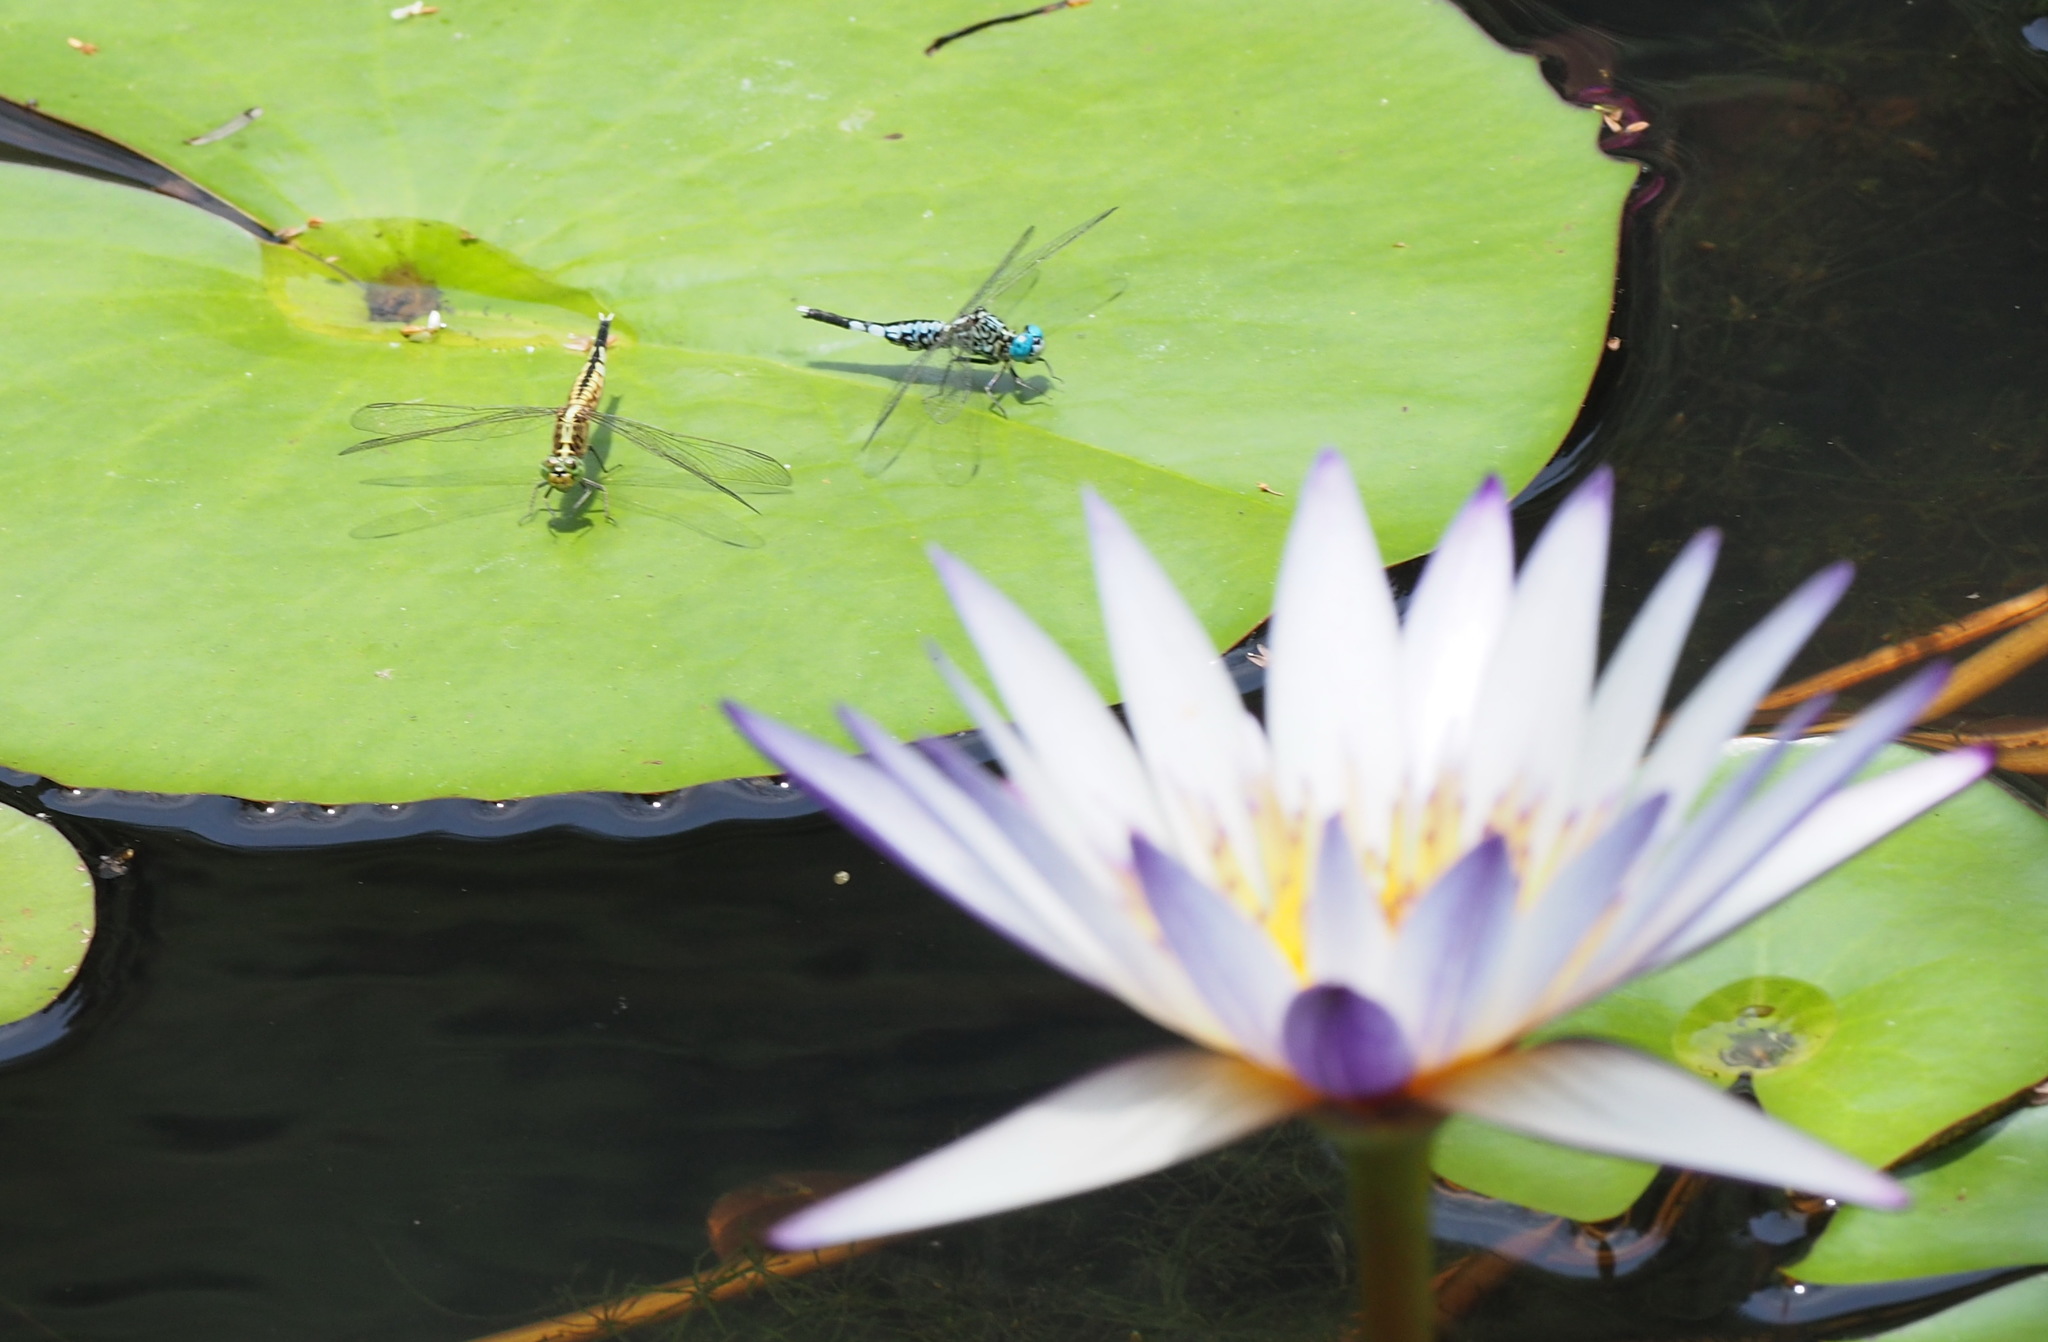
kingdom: Animalia
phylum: Arthropoda
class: Insecta
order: Odonata
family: Libellulidae
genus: Acisoma
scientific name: Acisoma panorpoides
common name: Asian pintail
